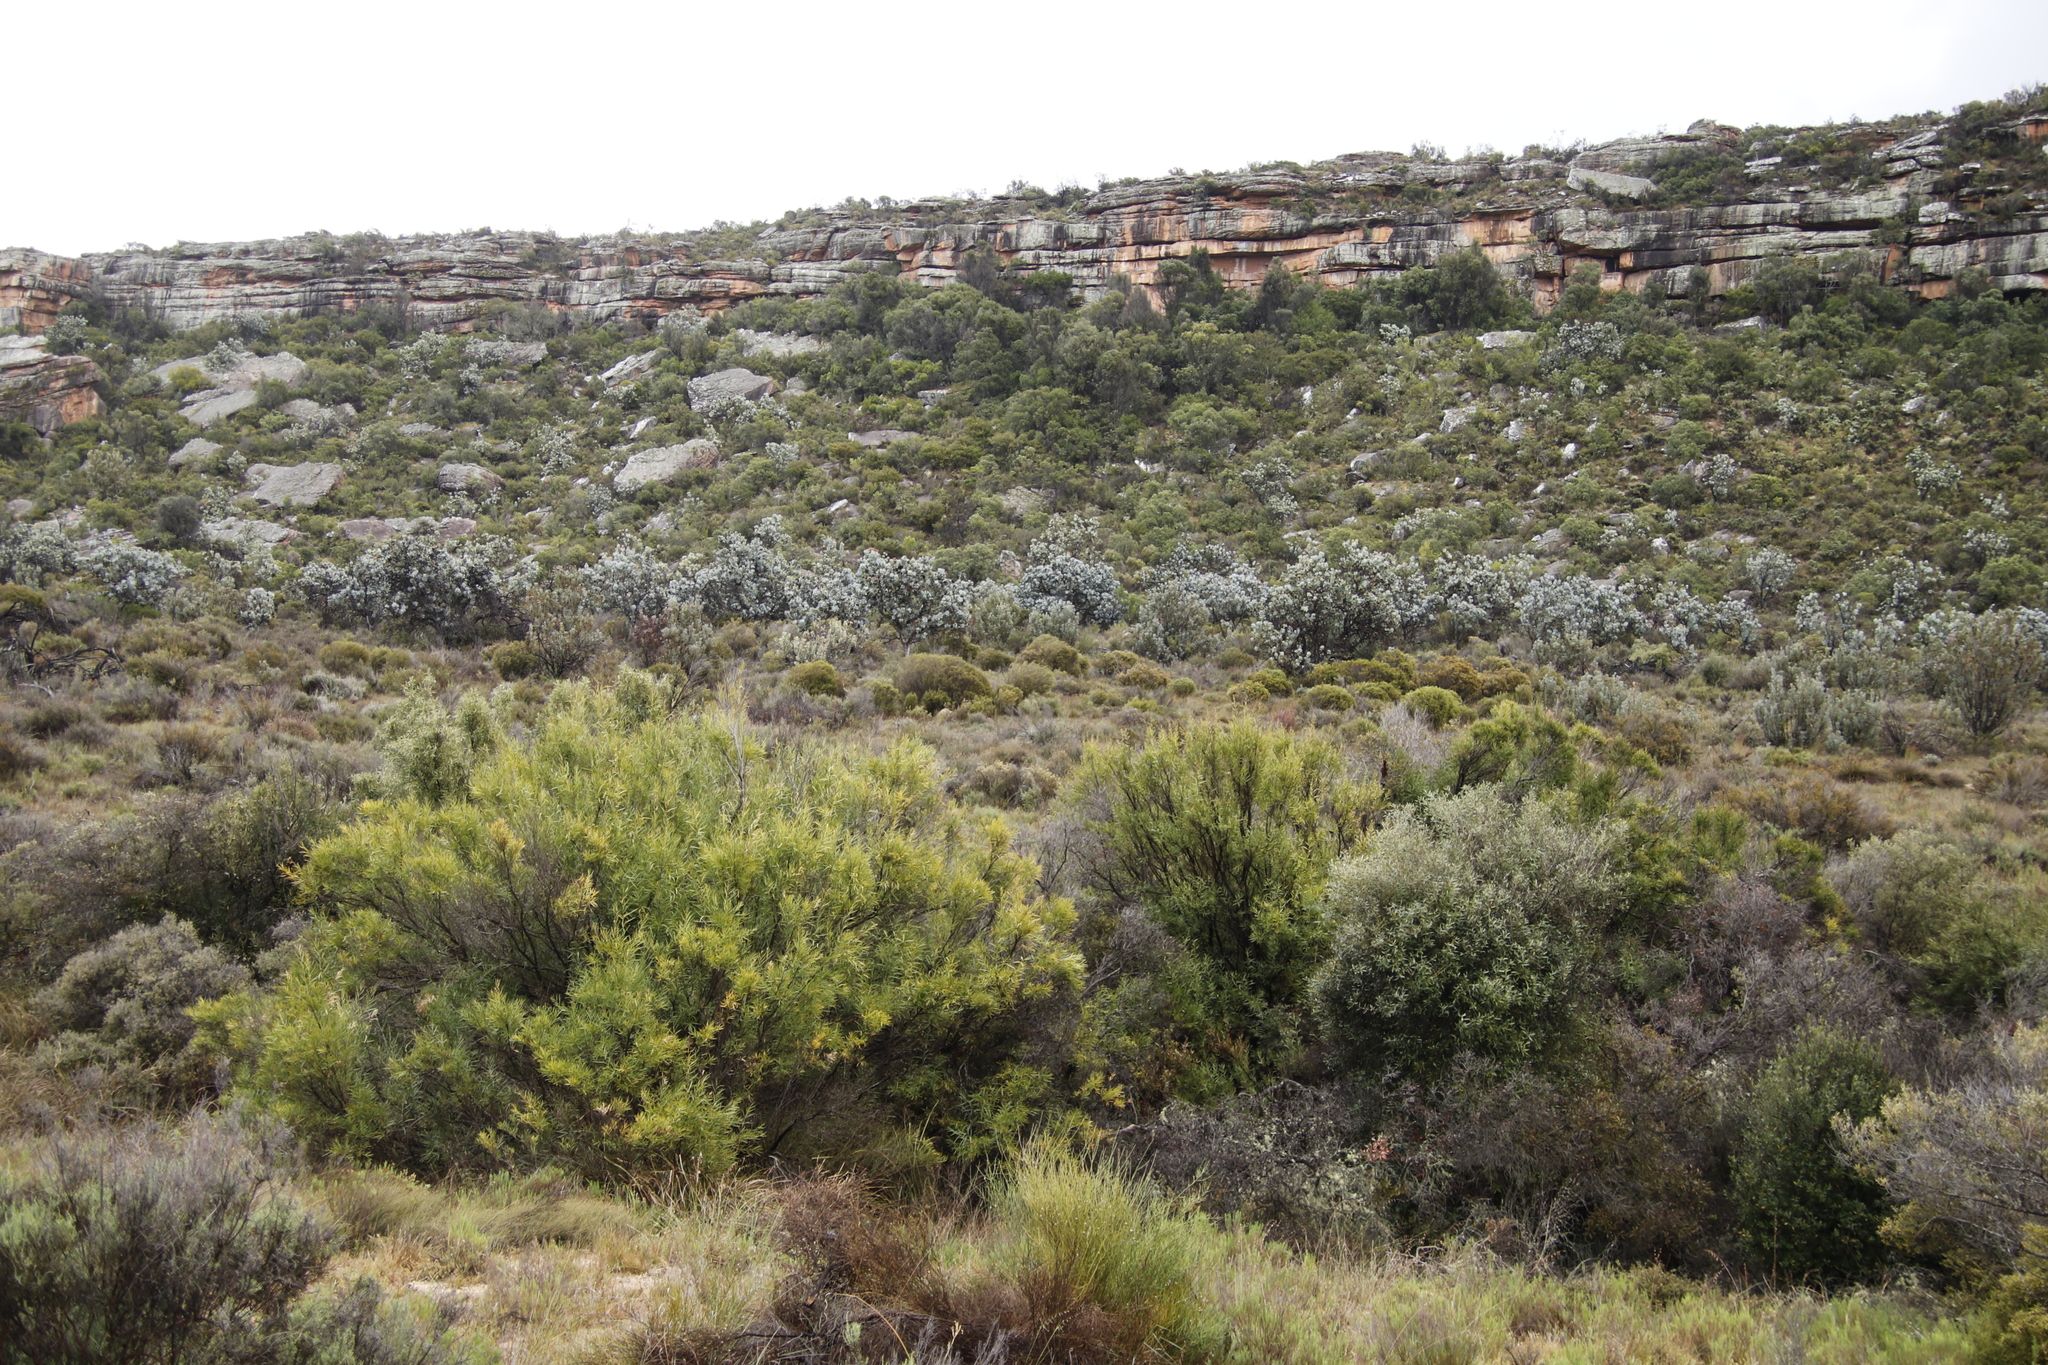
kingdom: Plantae
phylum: Tracheophyta
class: Magnoliopsida
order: Proteales
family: Proteaceae
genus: Protea
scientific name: Protea nitida
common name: Tree protea
